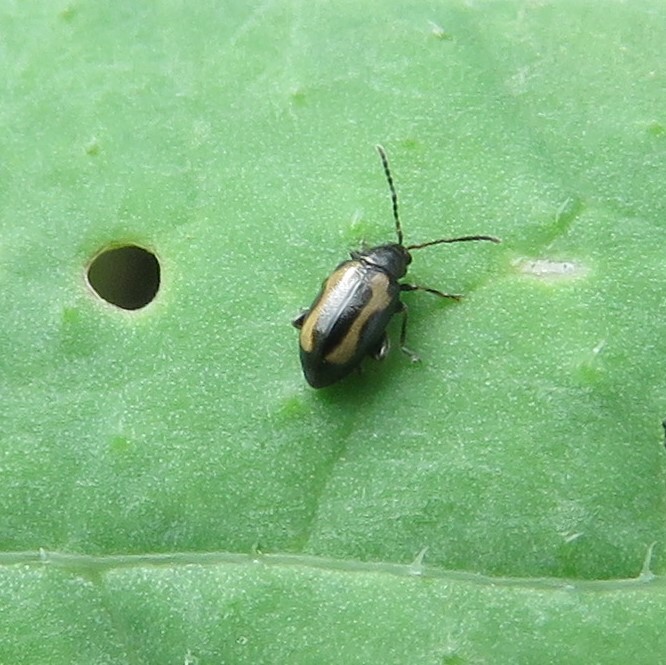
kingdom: Animalia
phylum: Arthropoda
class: Insecta
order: Coleoptera
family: Chrysomelidae
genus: Phyllotreta
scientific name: Phyllotreta striolata
